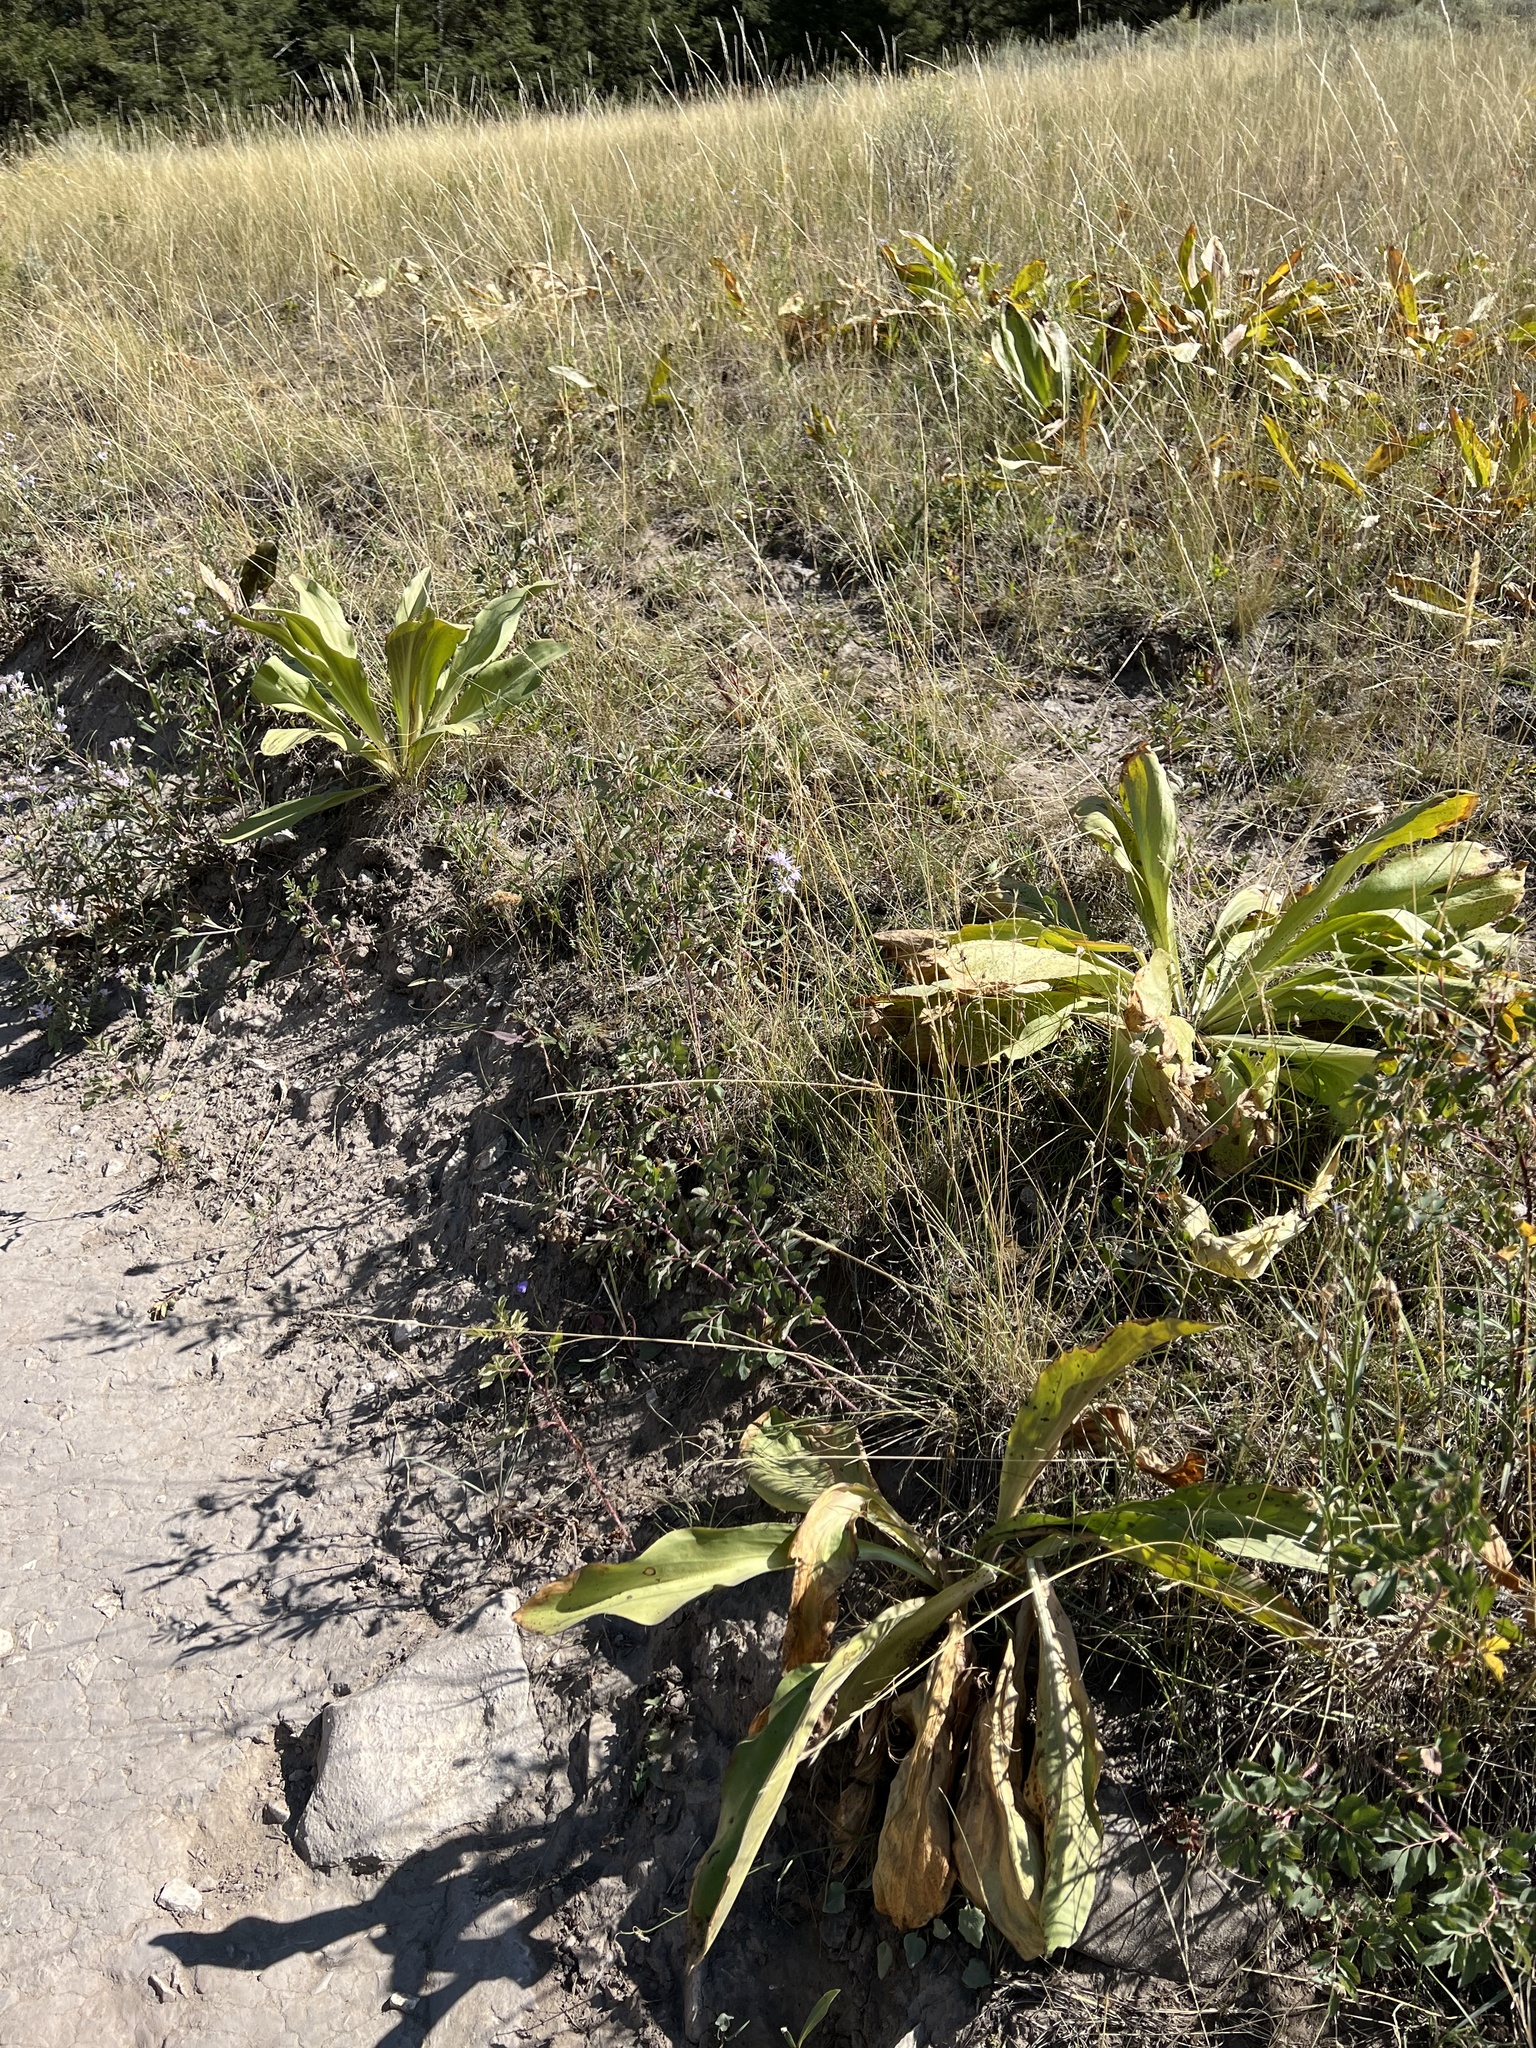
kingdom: Plantae
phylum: Tracheophyta
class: Magnoliopsida
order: Gentianales
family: Gentianaceae
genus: Frasera
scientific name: Frasera speciosa
